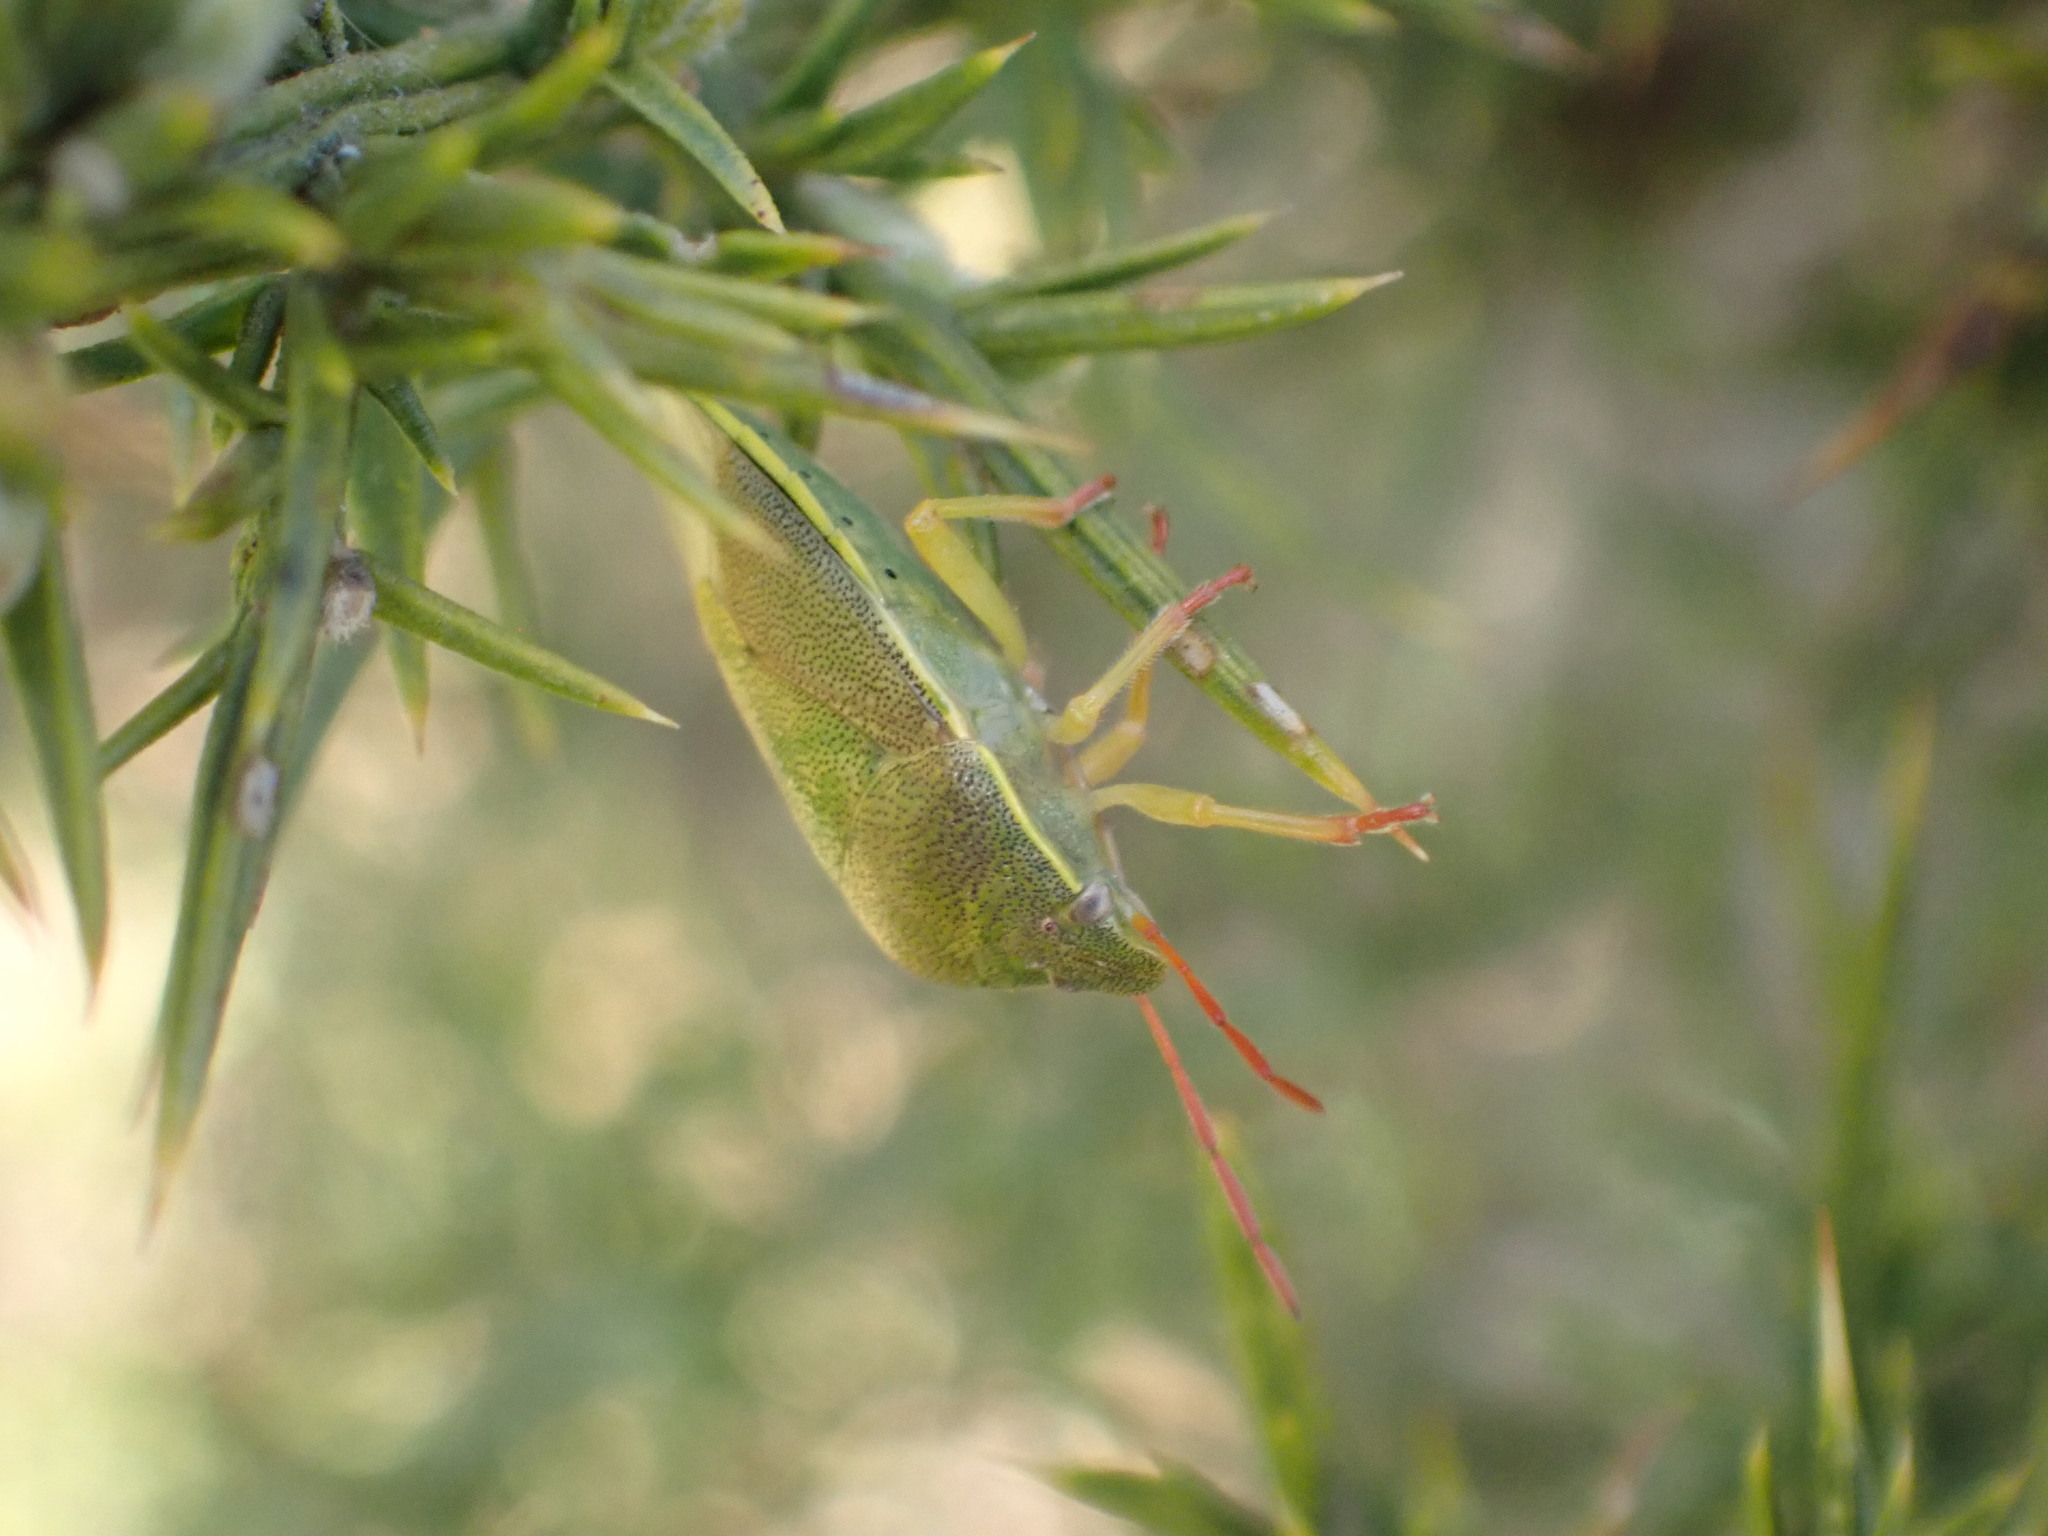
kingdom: Animalia
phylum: Arthropoda
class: Insecta
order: Hemiptera
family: Pentatomidae
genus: Piezodorus
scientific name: Piezodorus lituratus
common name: Stink bug
